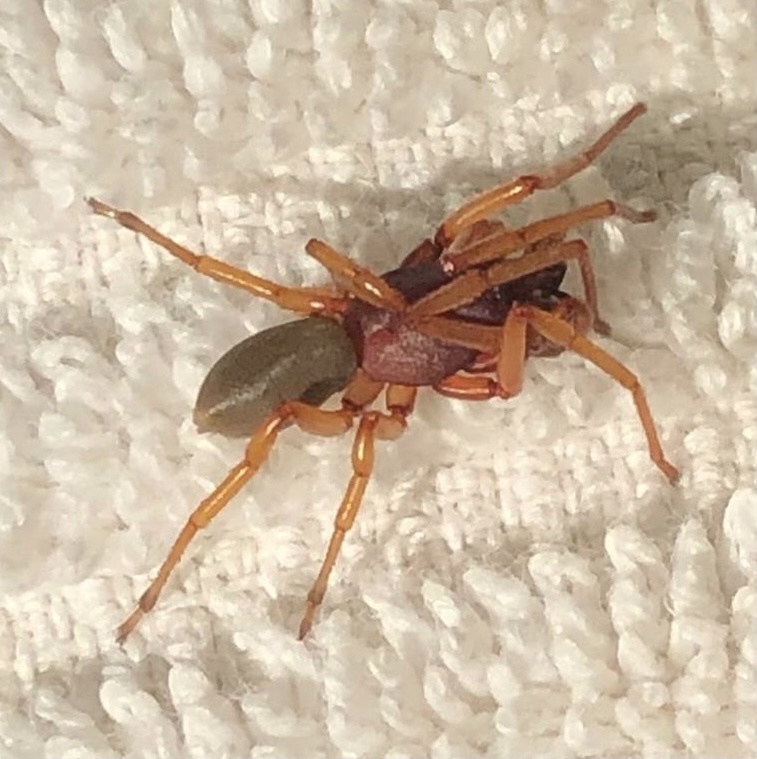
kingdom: Animalia
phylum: Arthropoda
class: Arachnida
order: Araneae
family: Dysderidae
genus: Dysdera
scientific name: Dysdera crocata
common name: Woodlouse spider
